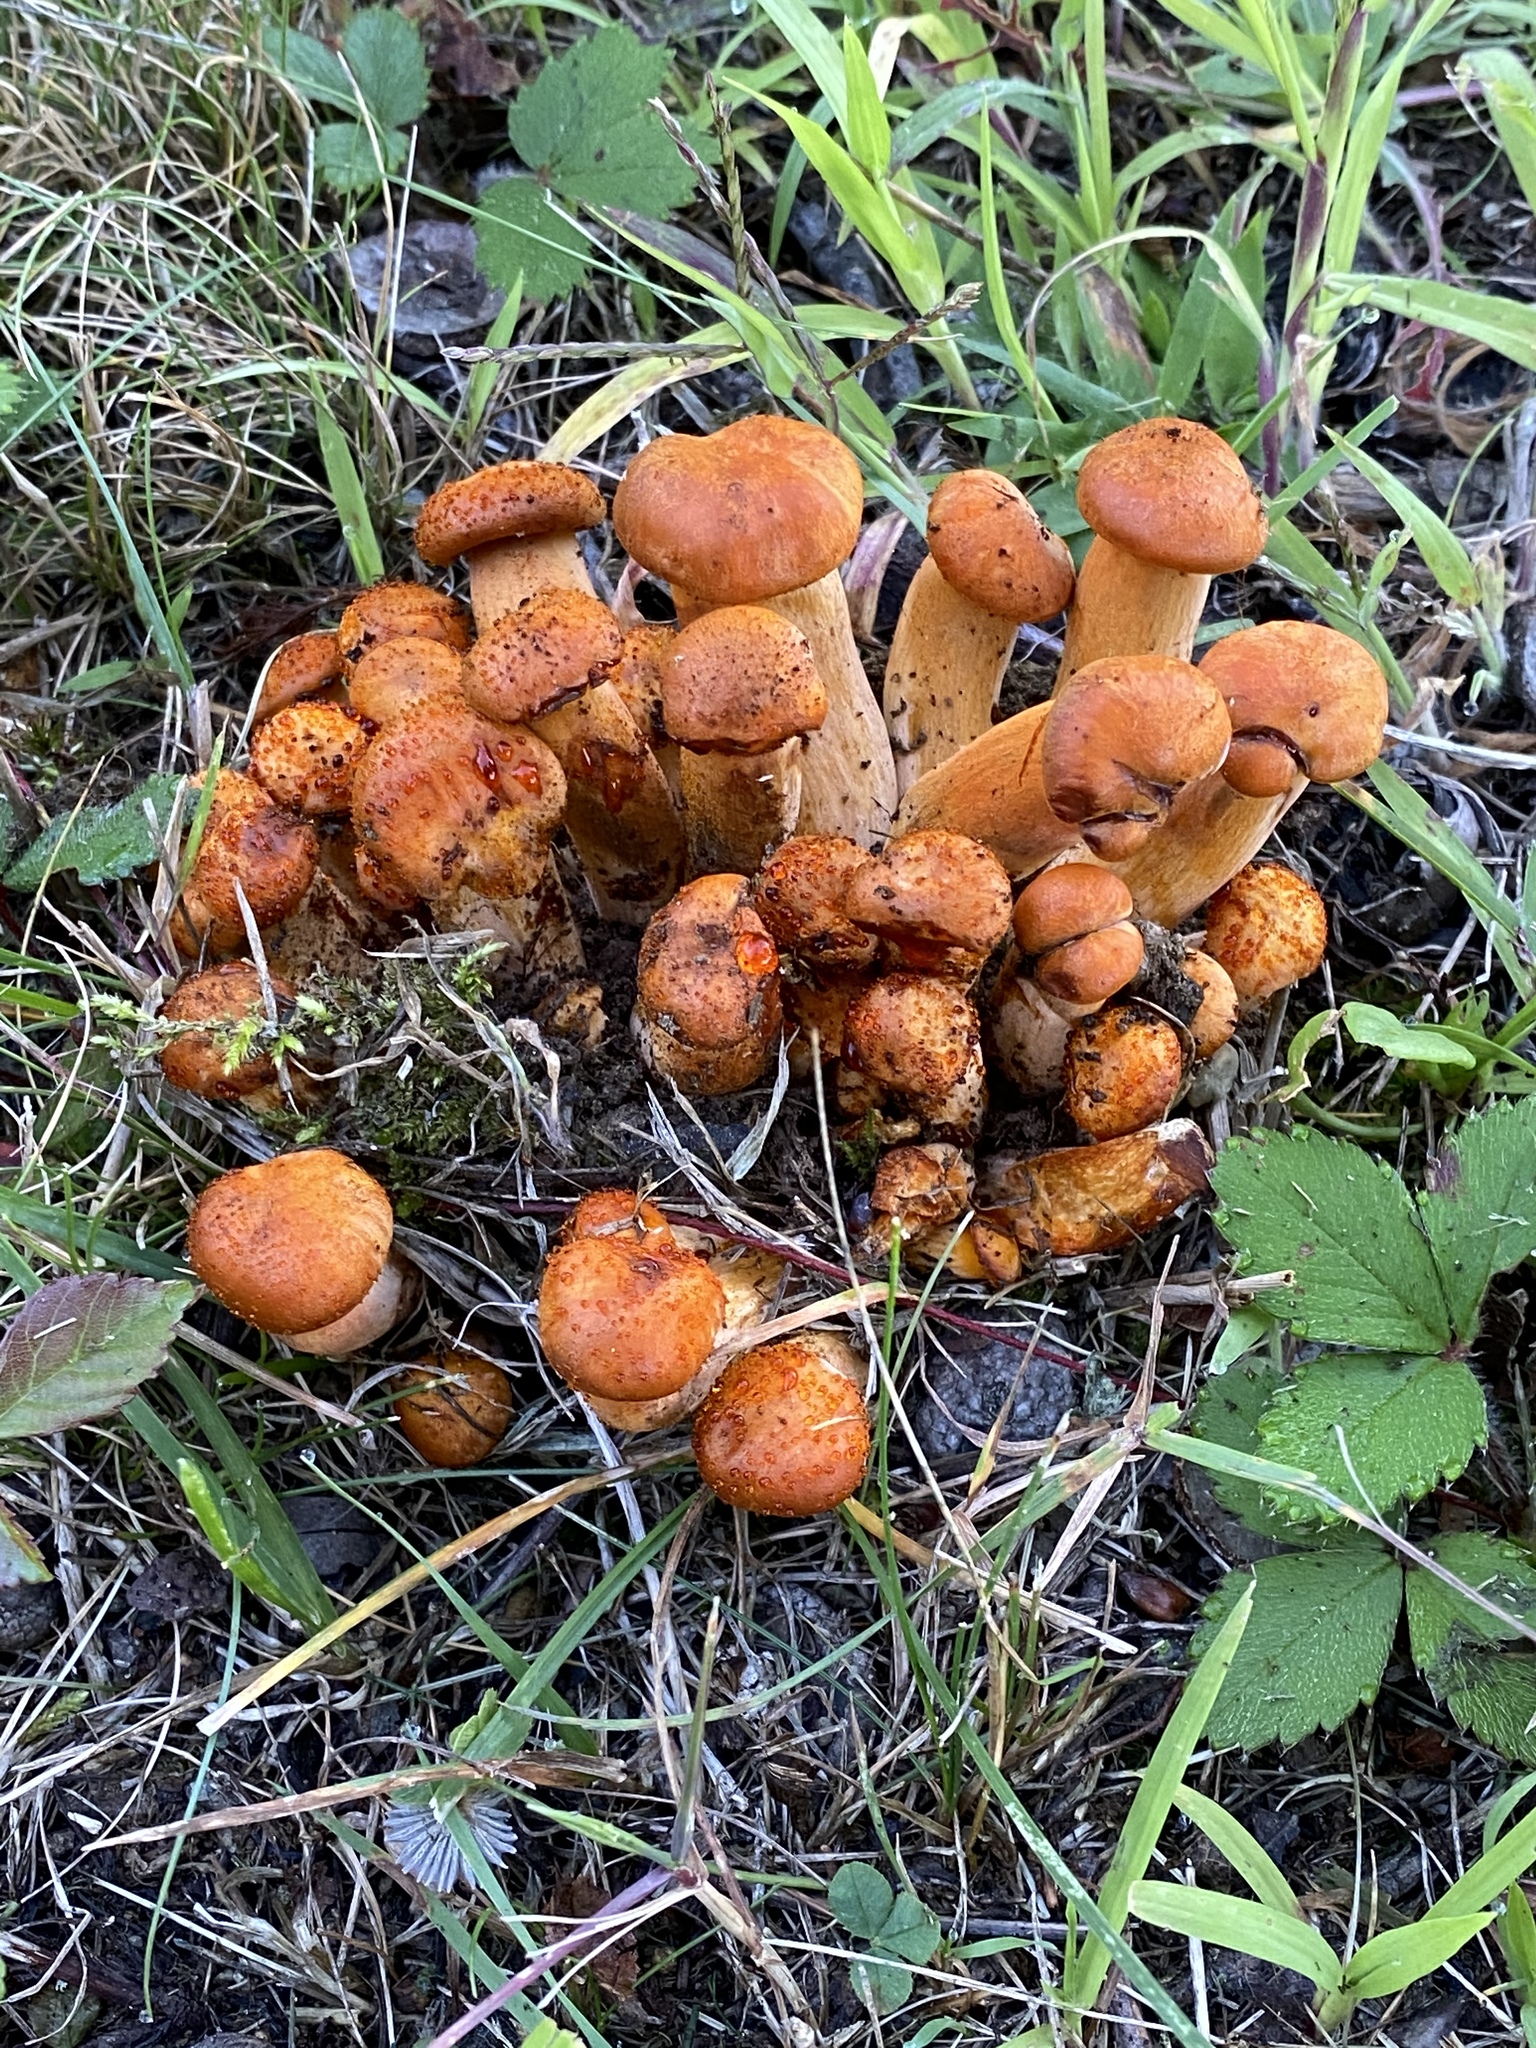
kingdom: Fungi
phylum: Basidiomycota
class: Agaricomycetes
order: Agaricales
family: Omphalotaceae
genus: Omphalotus
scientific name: Omphalotus illudens
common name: Jack o lantern
